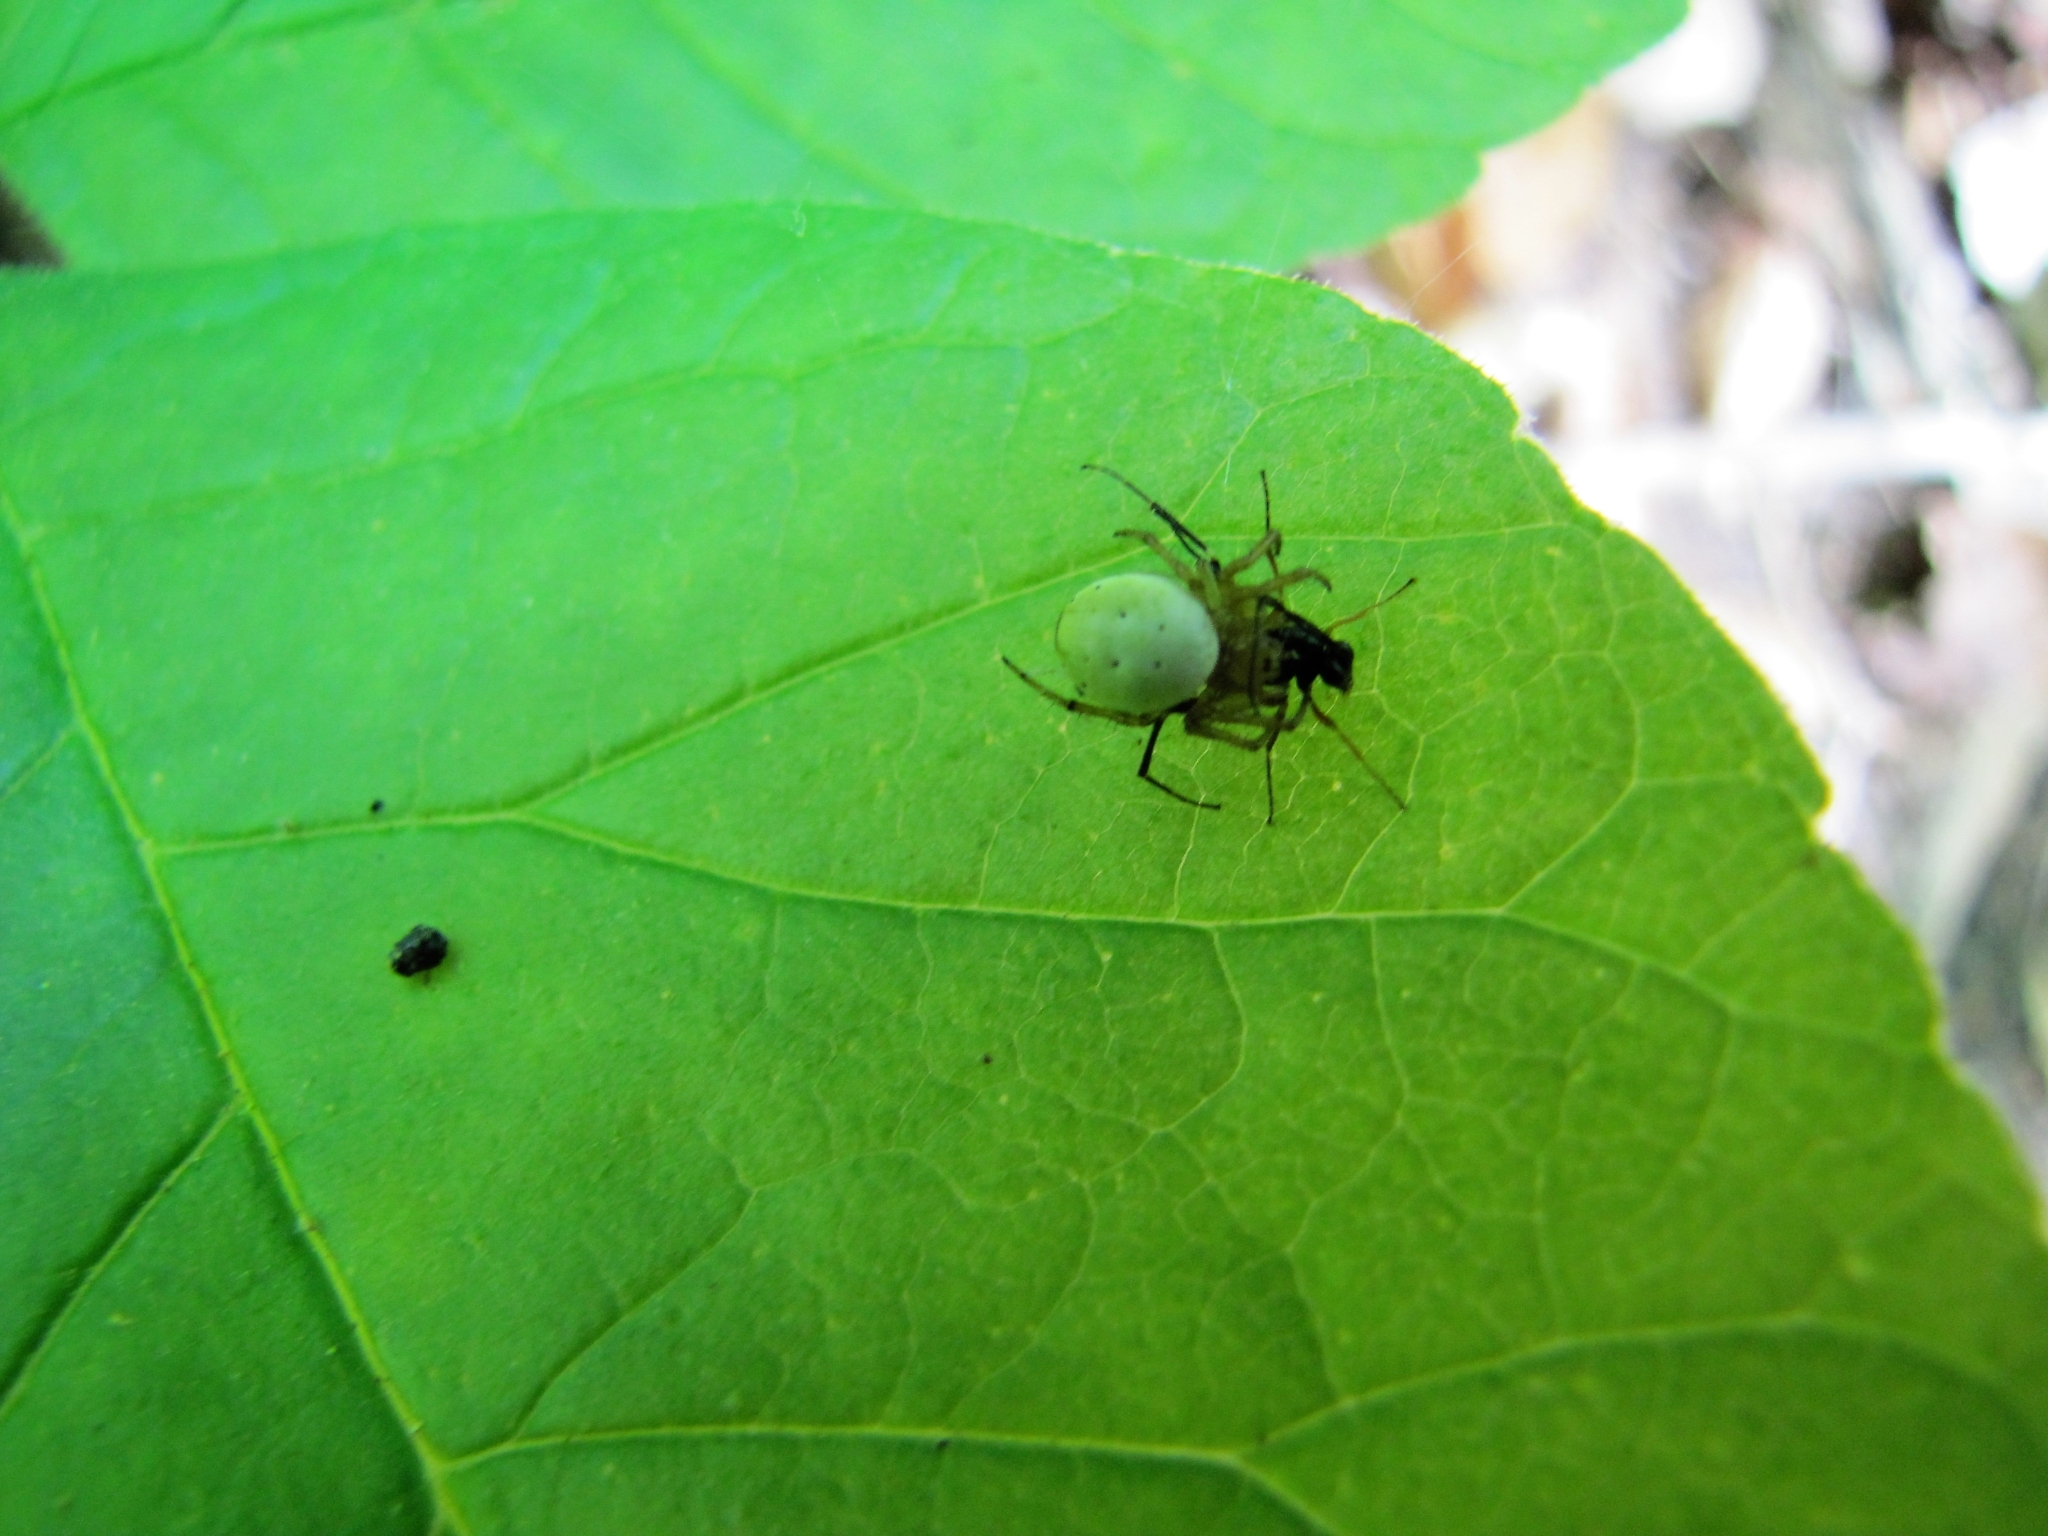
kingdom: Animalia
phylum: Arthropoda
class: Arachnida
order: Araneae
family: Araneidae
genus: Araniella
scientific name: Araniella displicata
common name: Sixspotted orb weaver
